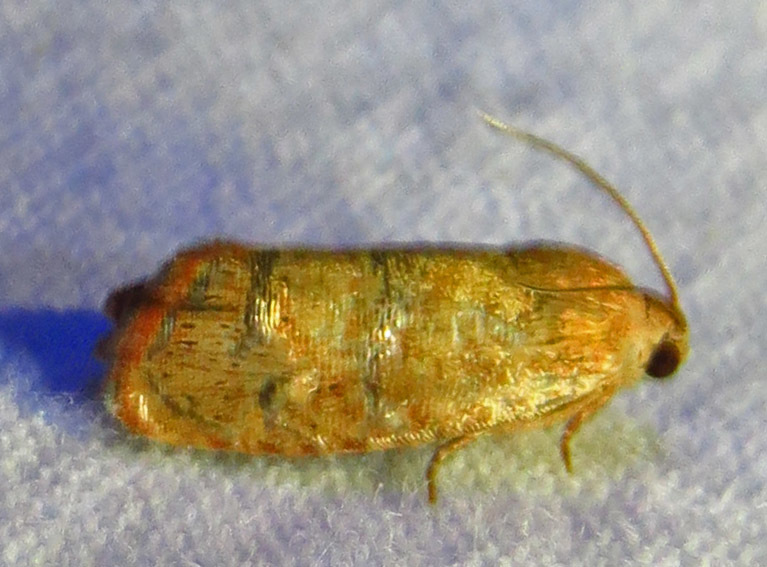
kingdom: Animalia
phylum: Arthropoda
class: Insecta
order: Lepidoptera
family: Tortricidae
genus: Cydia
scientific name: Cydia latiferreana
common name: Filbertworm moth
